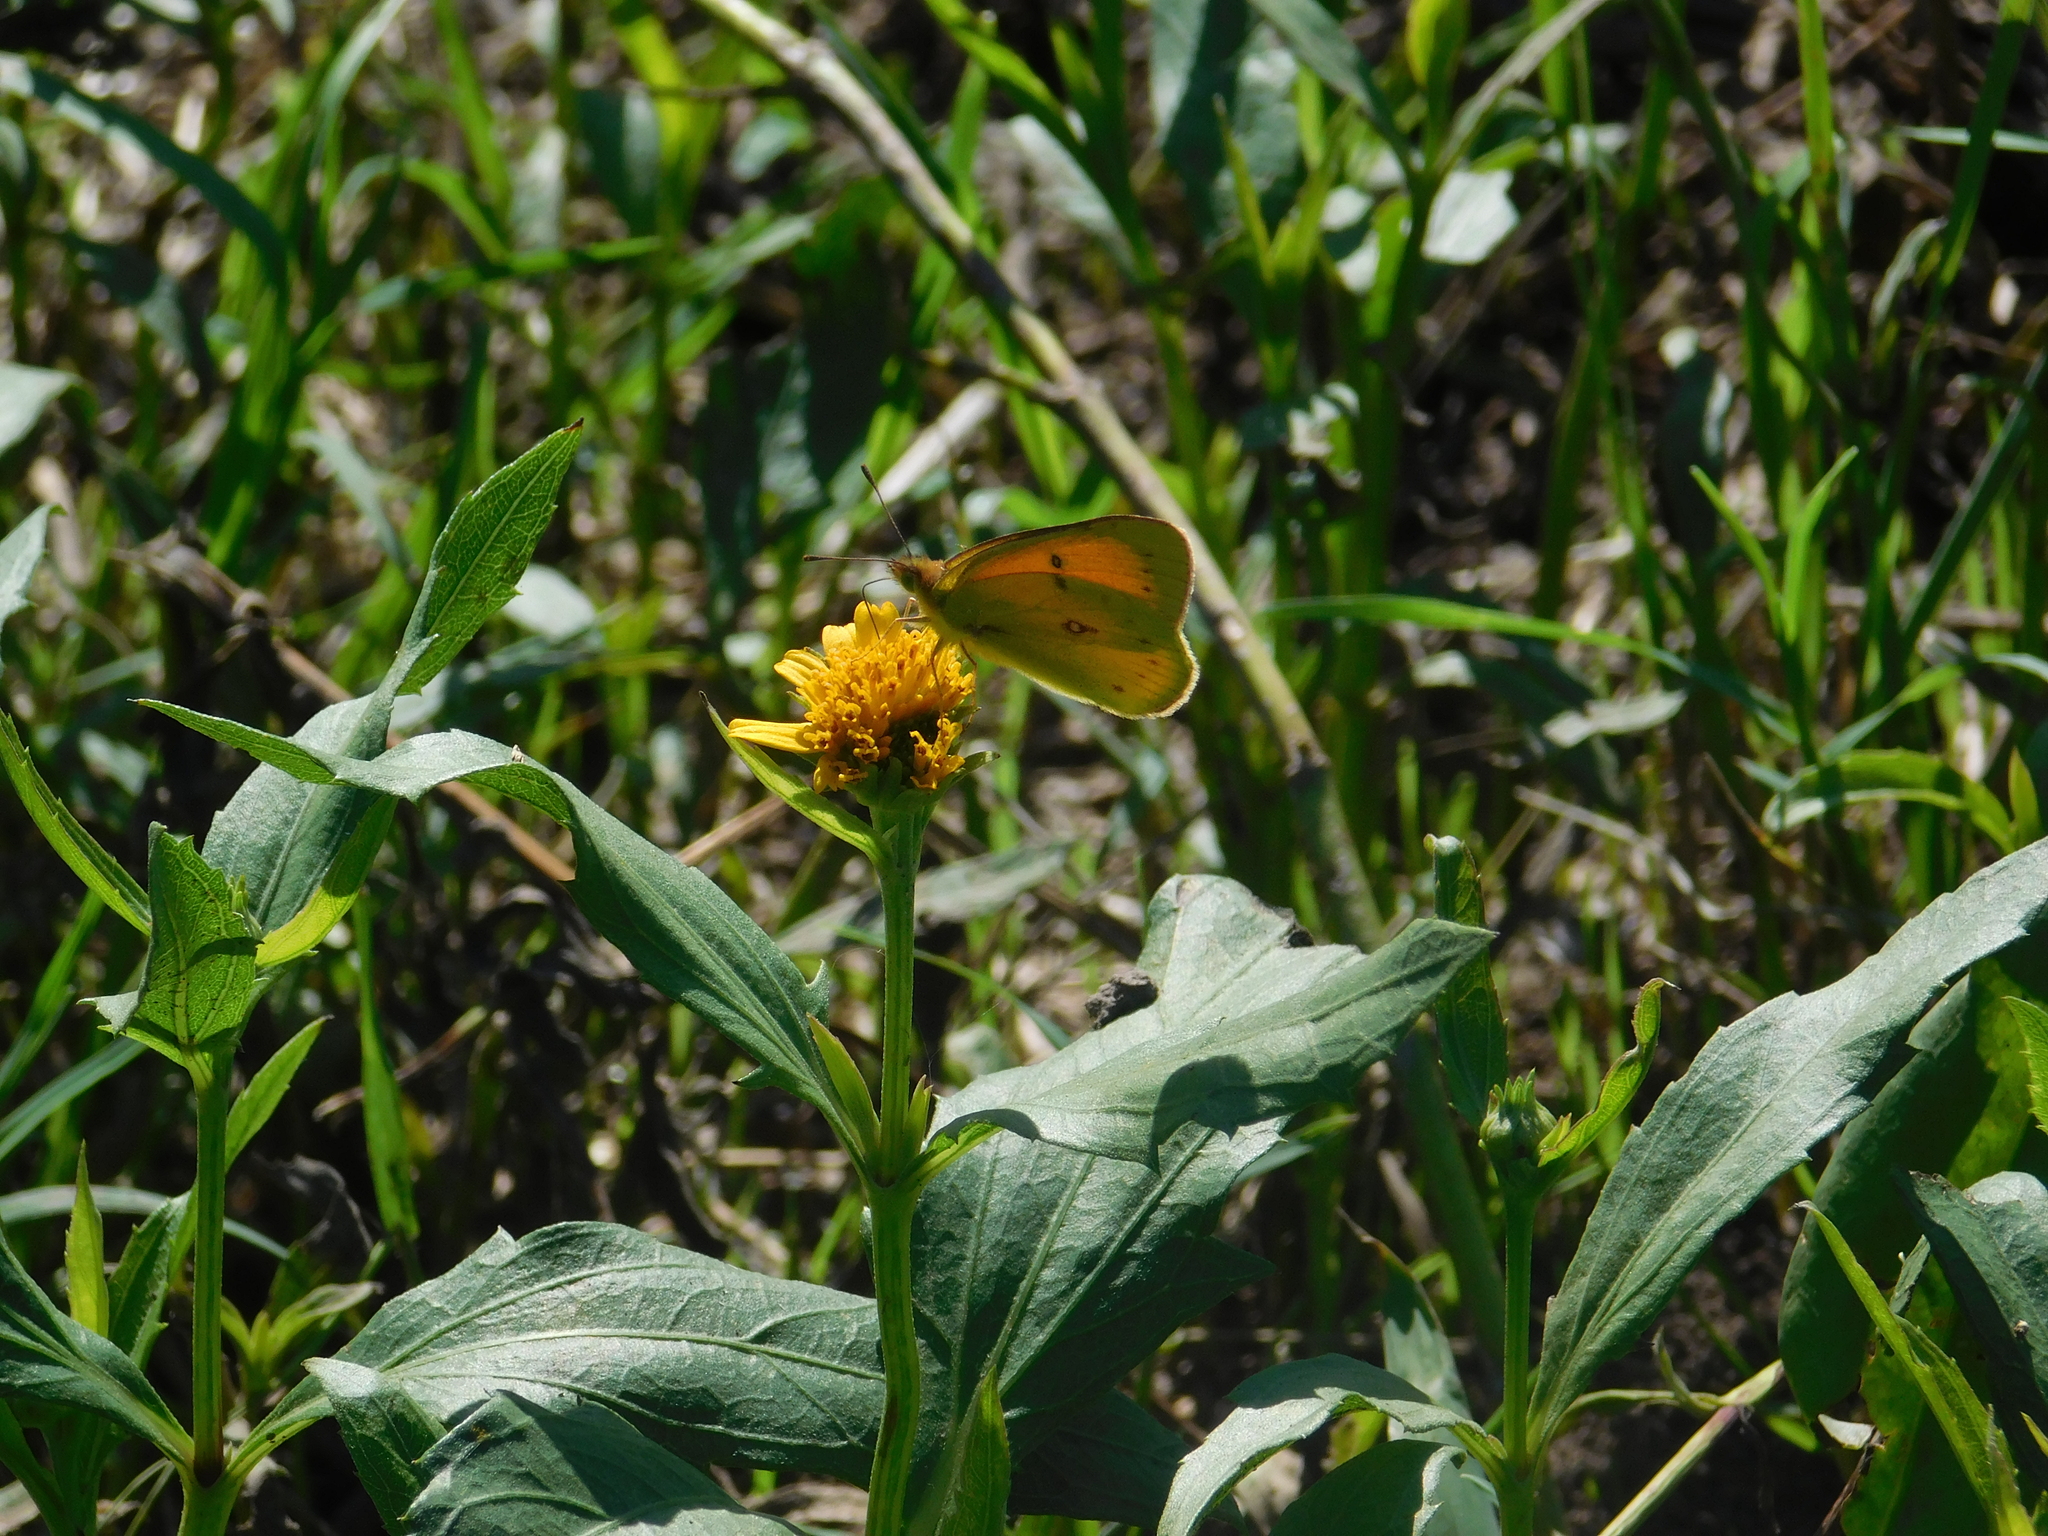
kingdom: Animalia
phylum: Arthropoda
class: Insecta
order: Lepidoptera
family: Pieridae
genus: Colias
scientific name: Colias lesbia
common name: Lesbia clouded yellow
